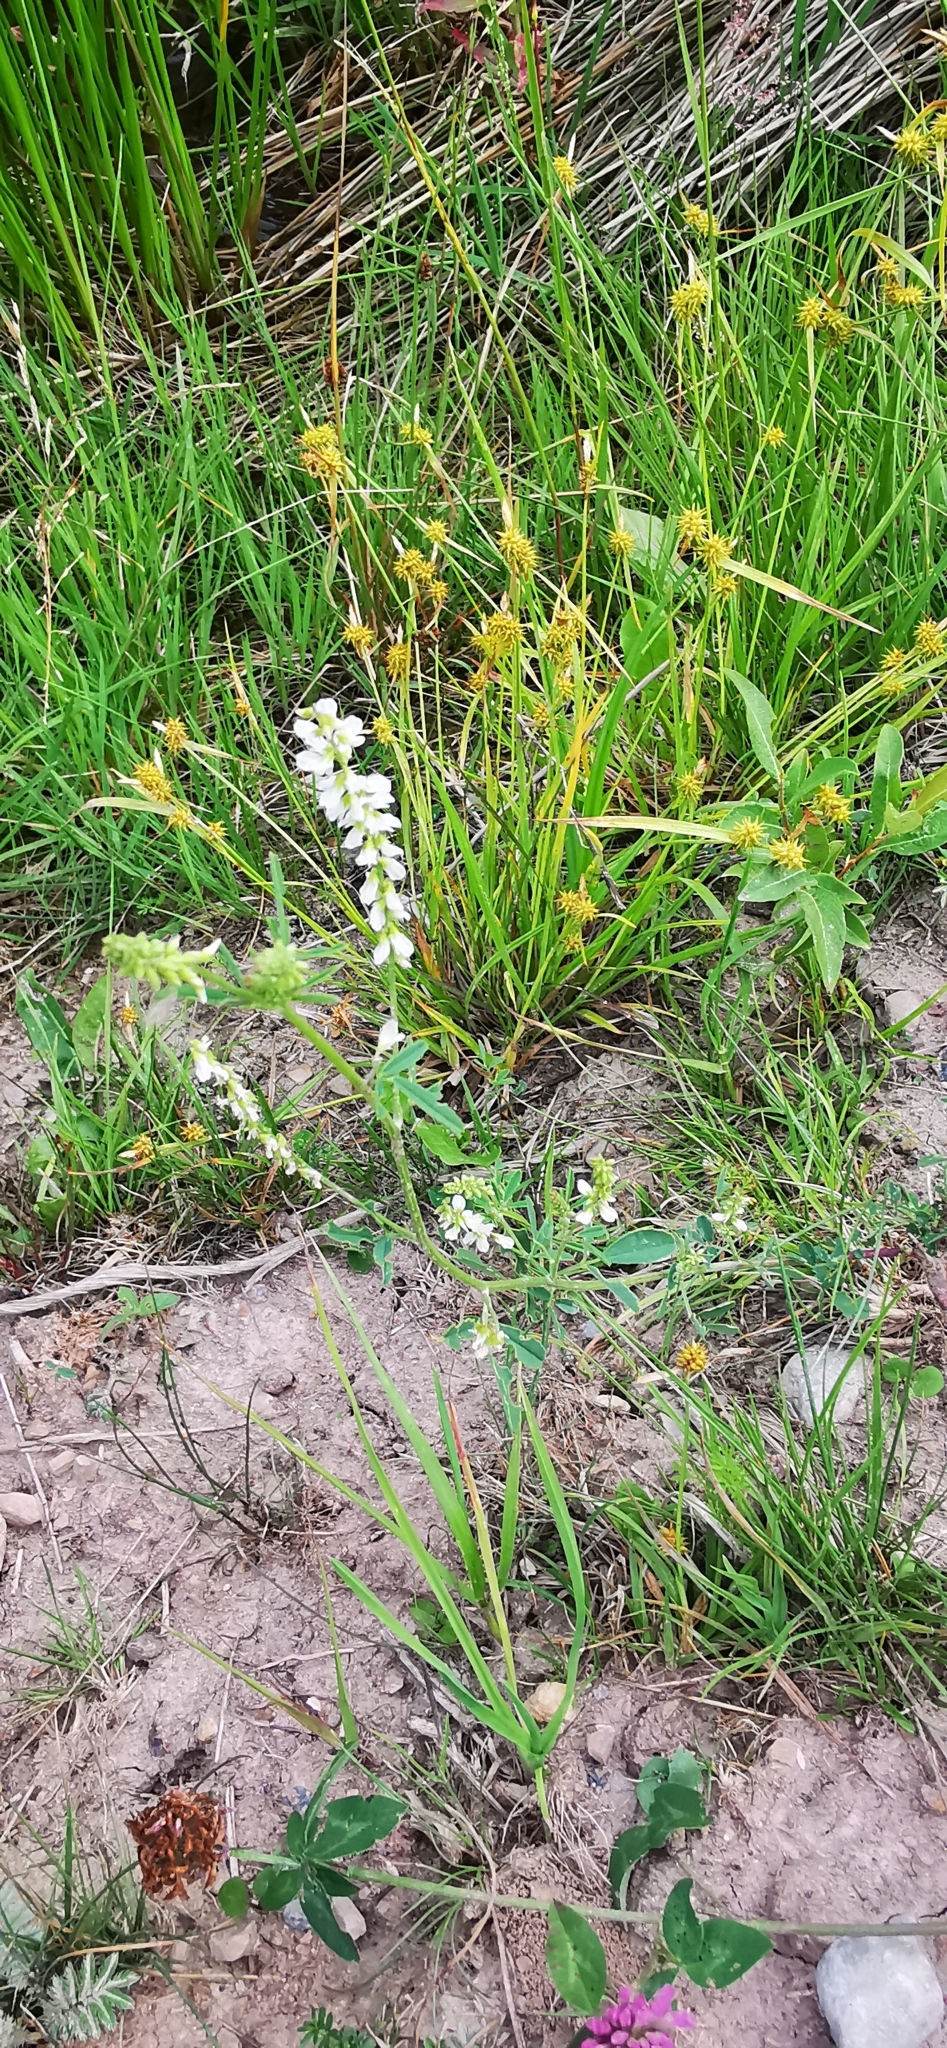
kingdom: Plantae
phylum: Tracheophyta
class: Magnoliopsida
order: Fabales
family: Fabaceae
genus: Melilotus
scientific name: Melilotus albus
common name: White melilot
